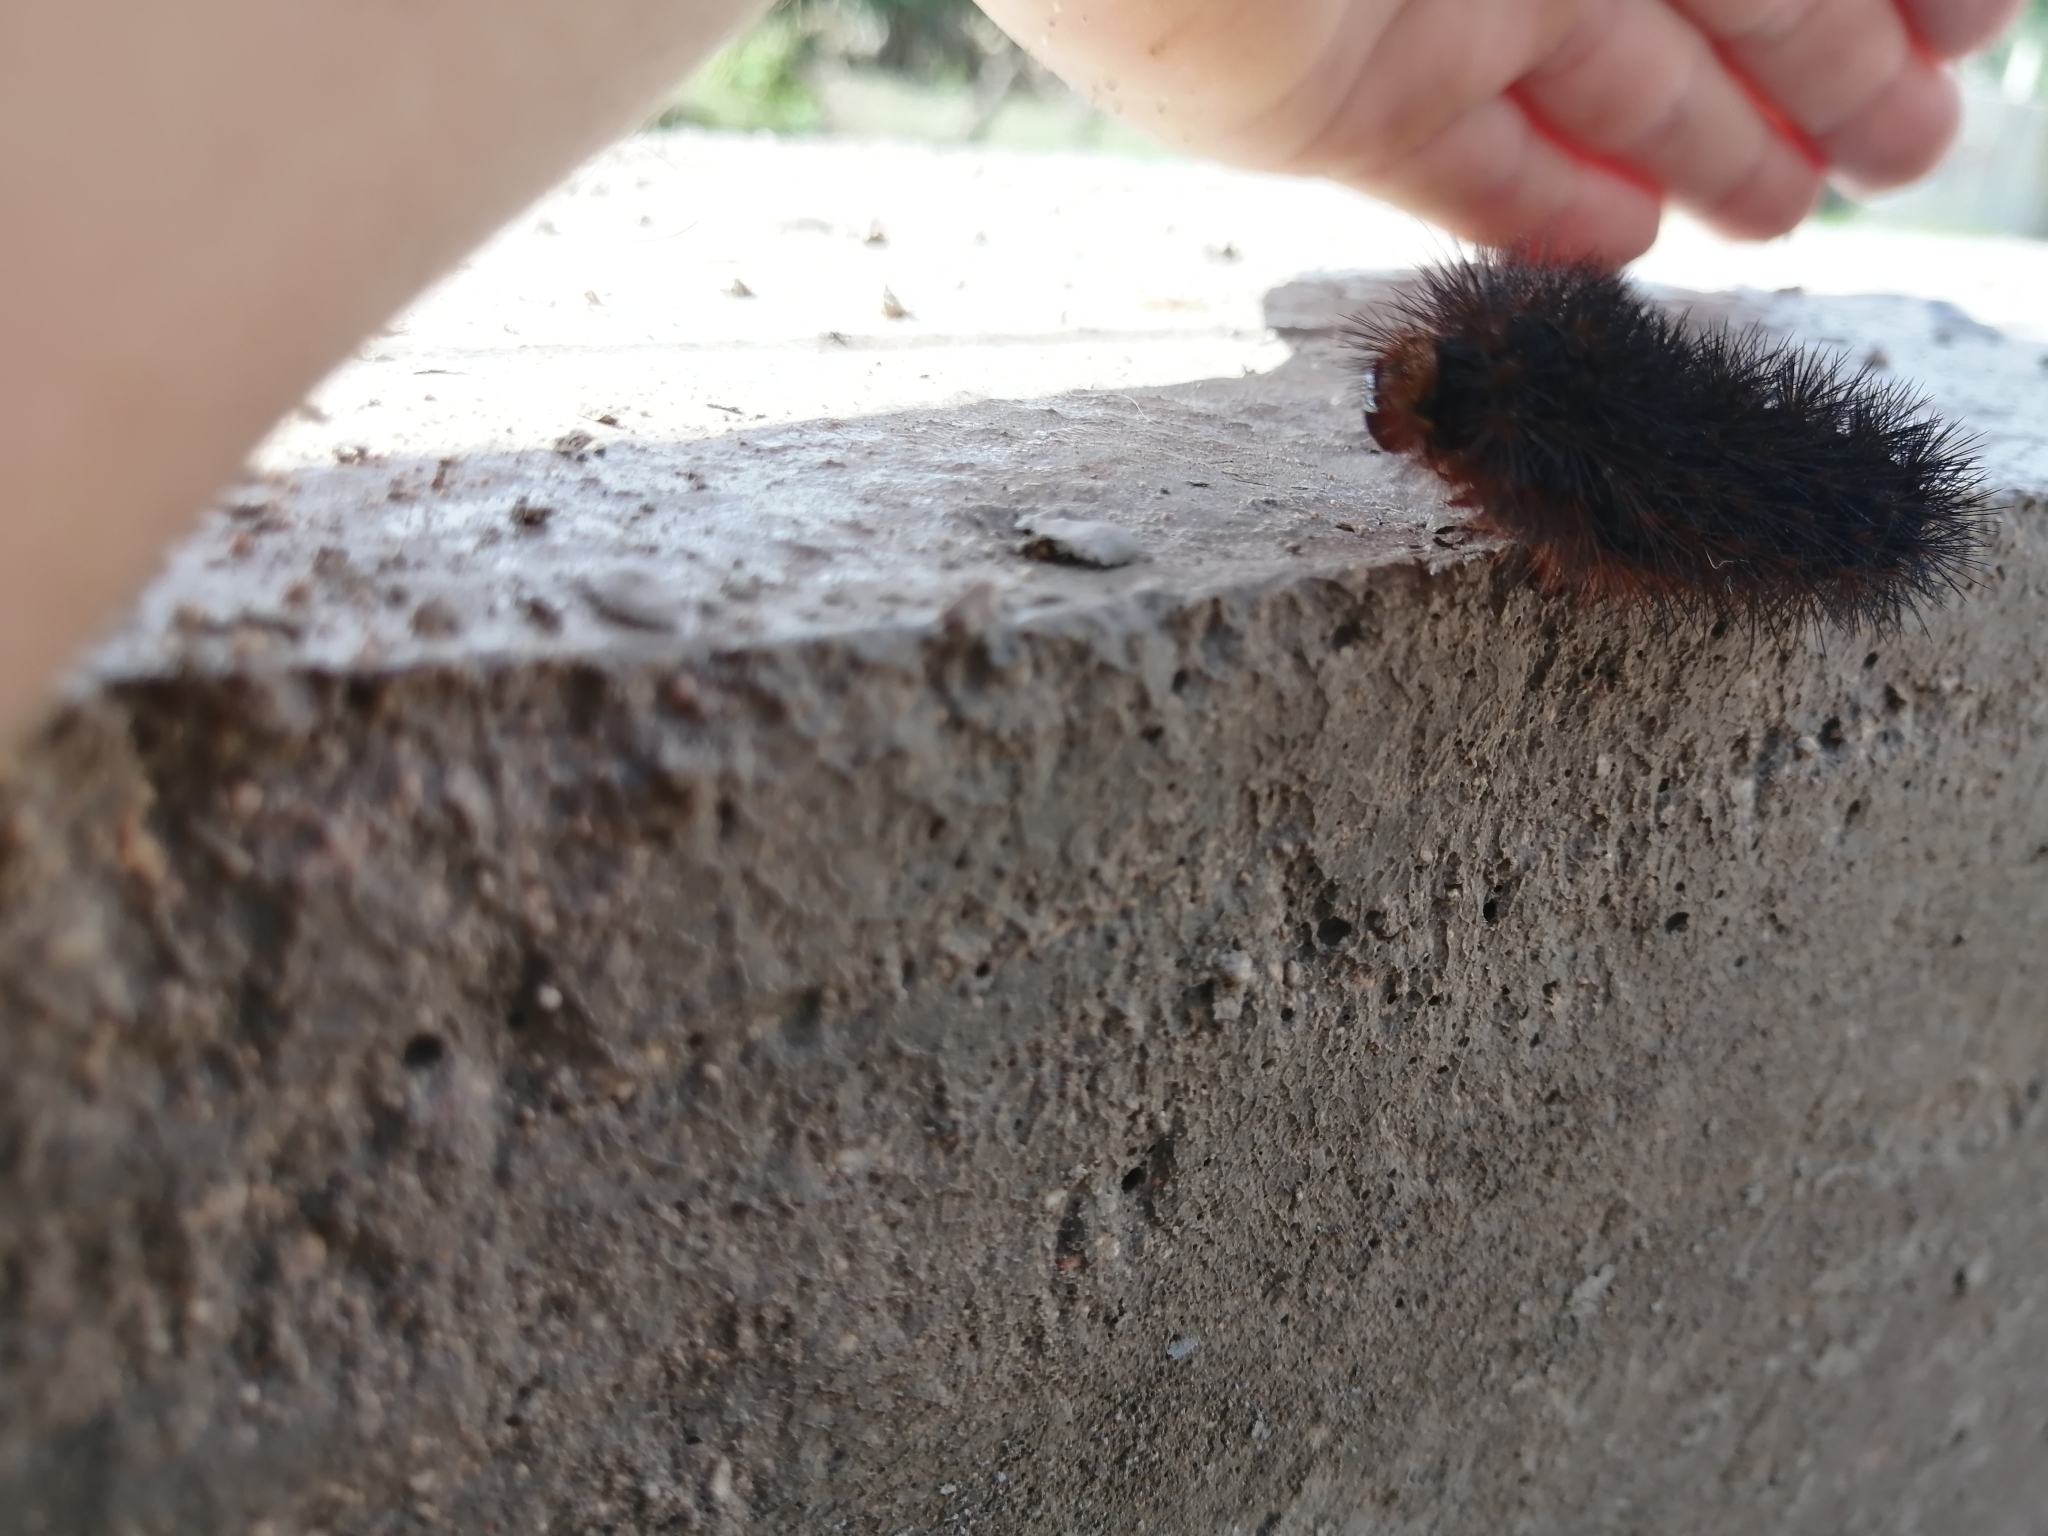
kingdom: Animalia
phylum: Arthropoda
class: Insecta
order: Lepidoptera
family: Erebidae
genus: Hypercompe
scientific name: Hypercompe scribonia
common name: Giant leopard moth
